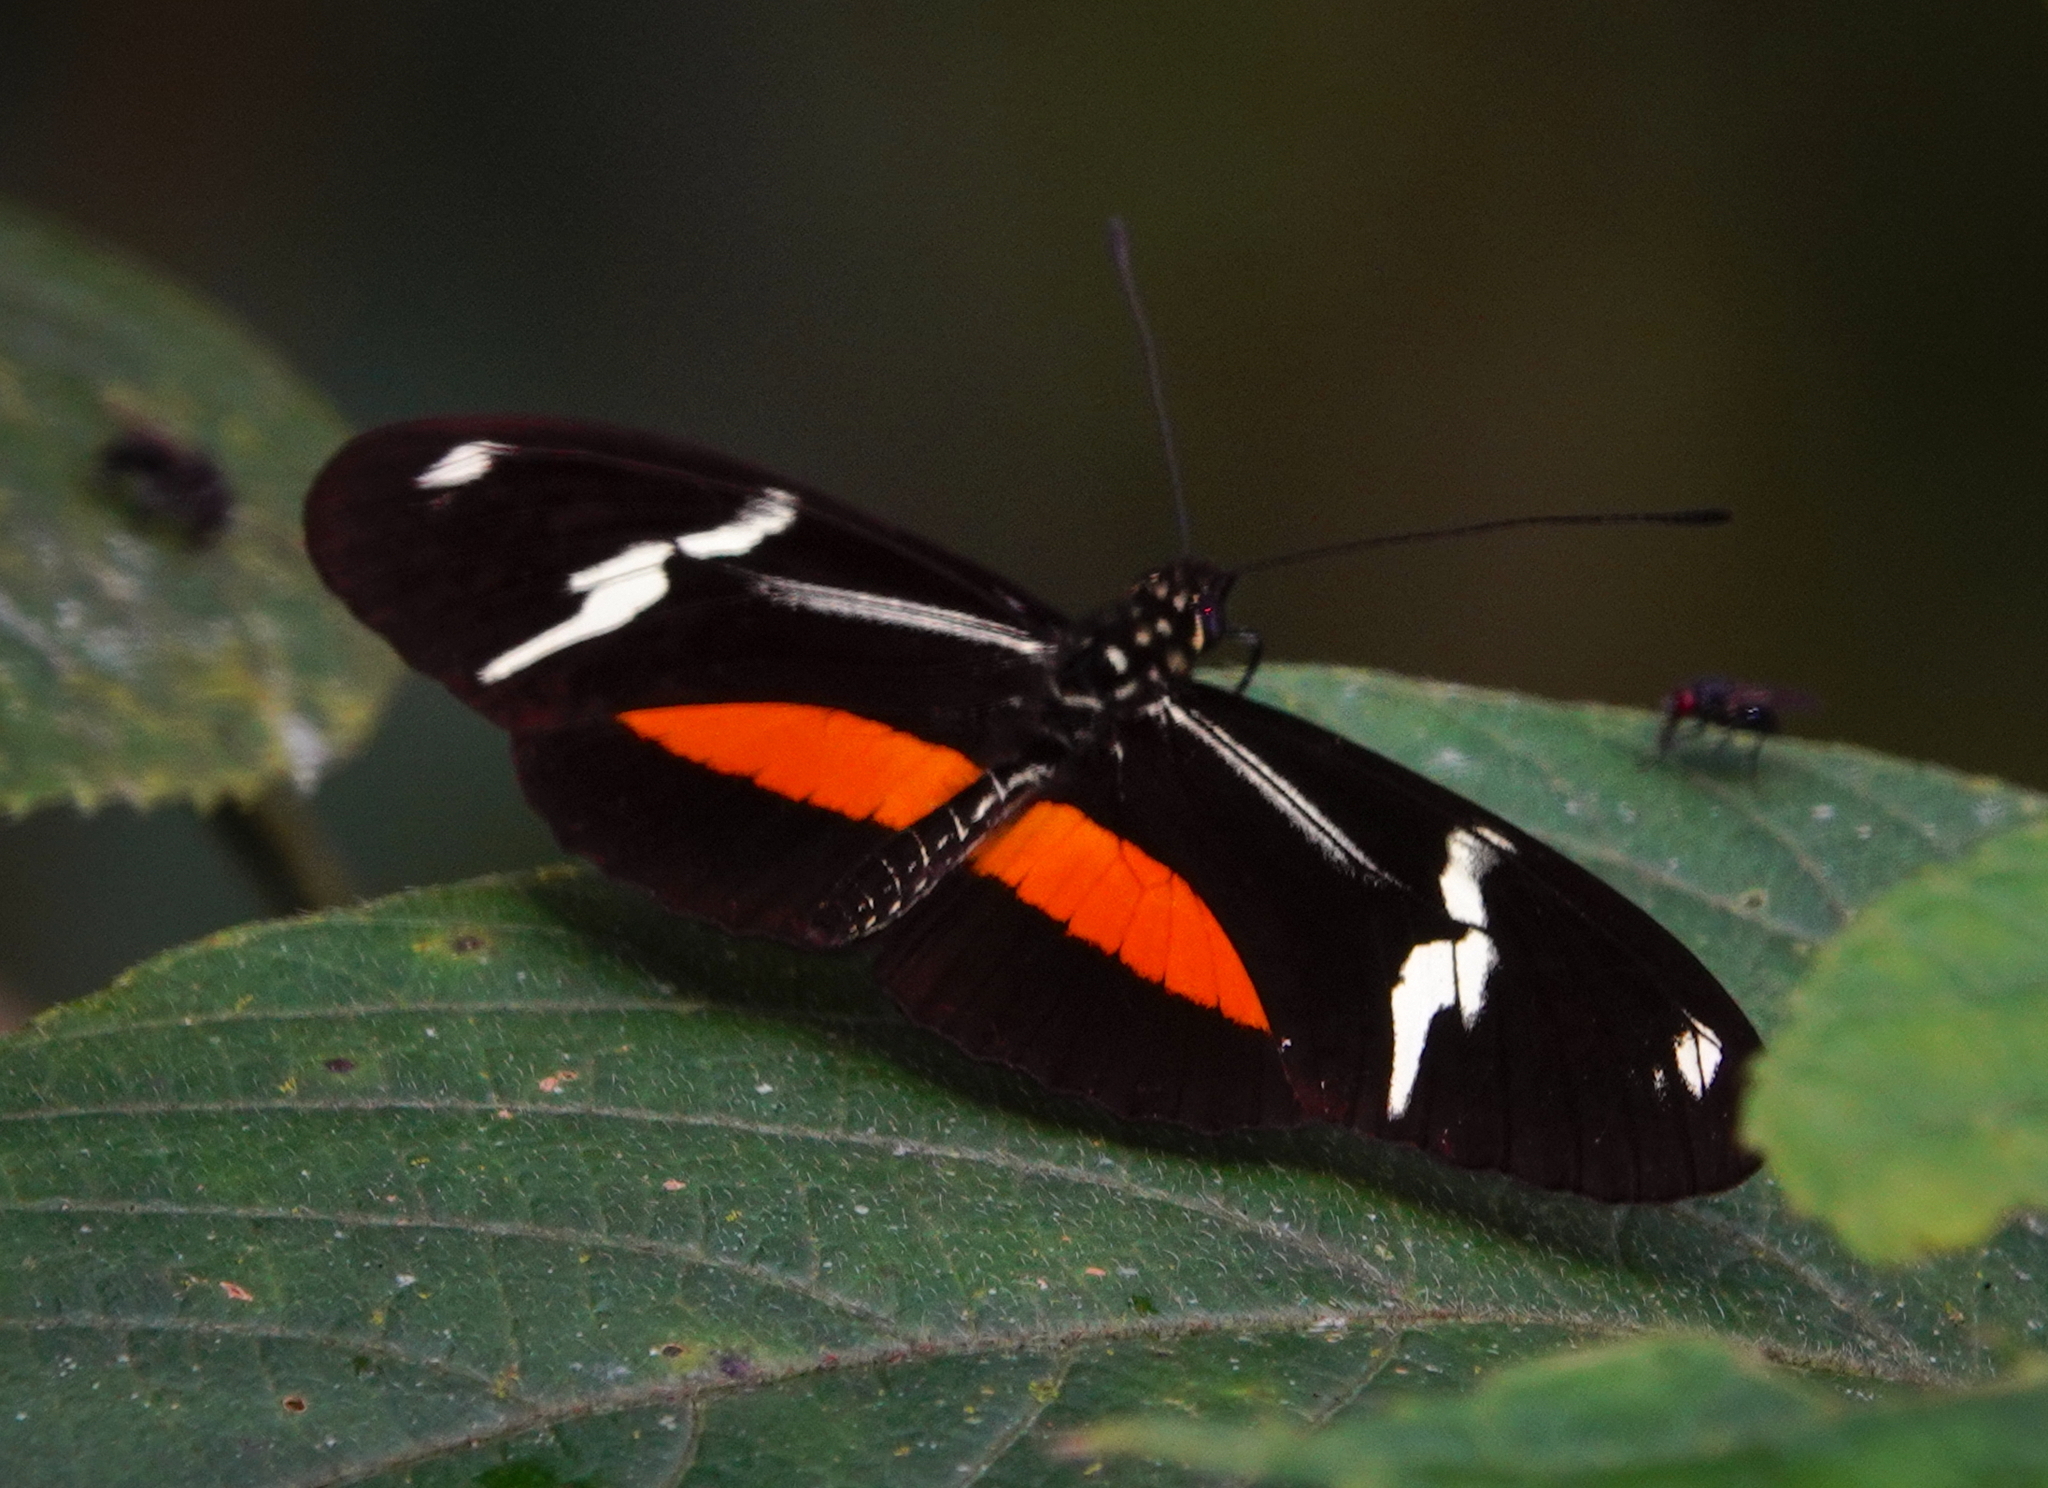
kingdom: Animalia
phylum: Arthropoda
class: Insecta
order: Lepidoptera
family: Nymphalidae
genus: Heliconius
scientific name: Heliconius clysonymus
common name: Clysonymus longwing
